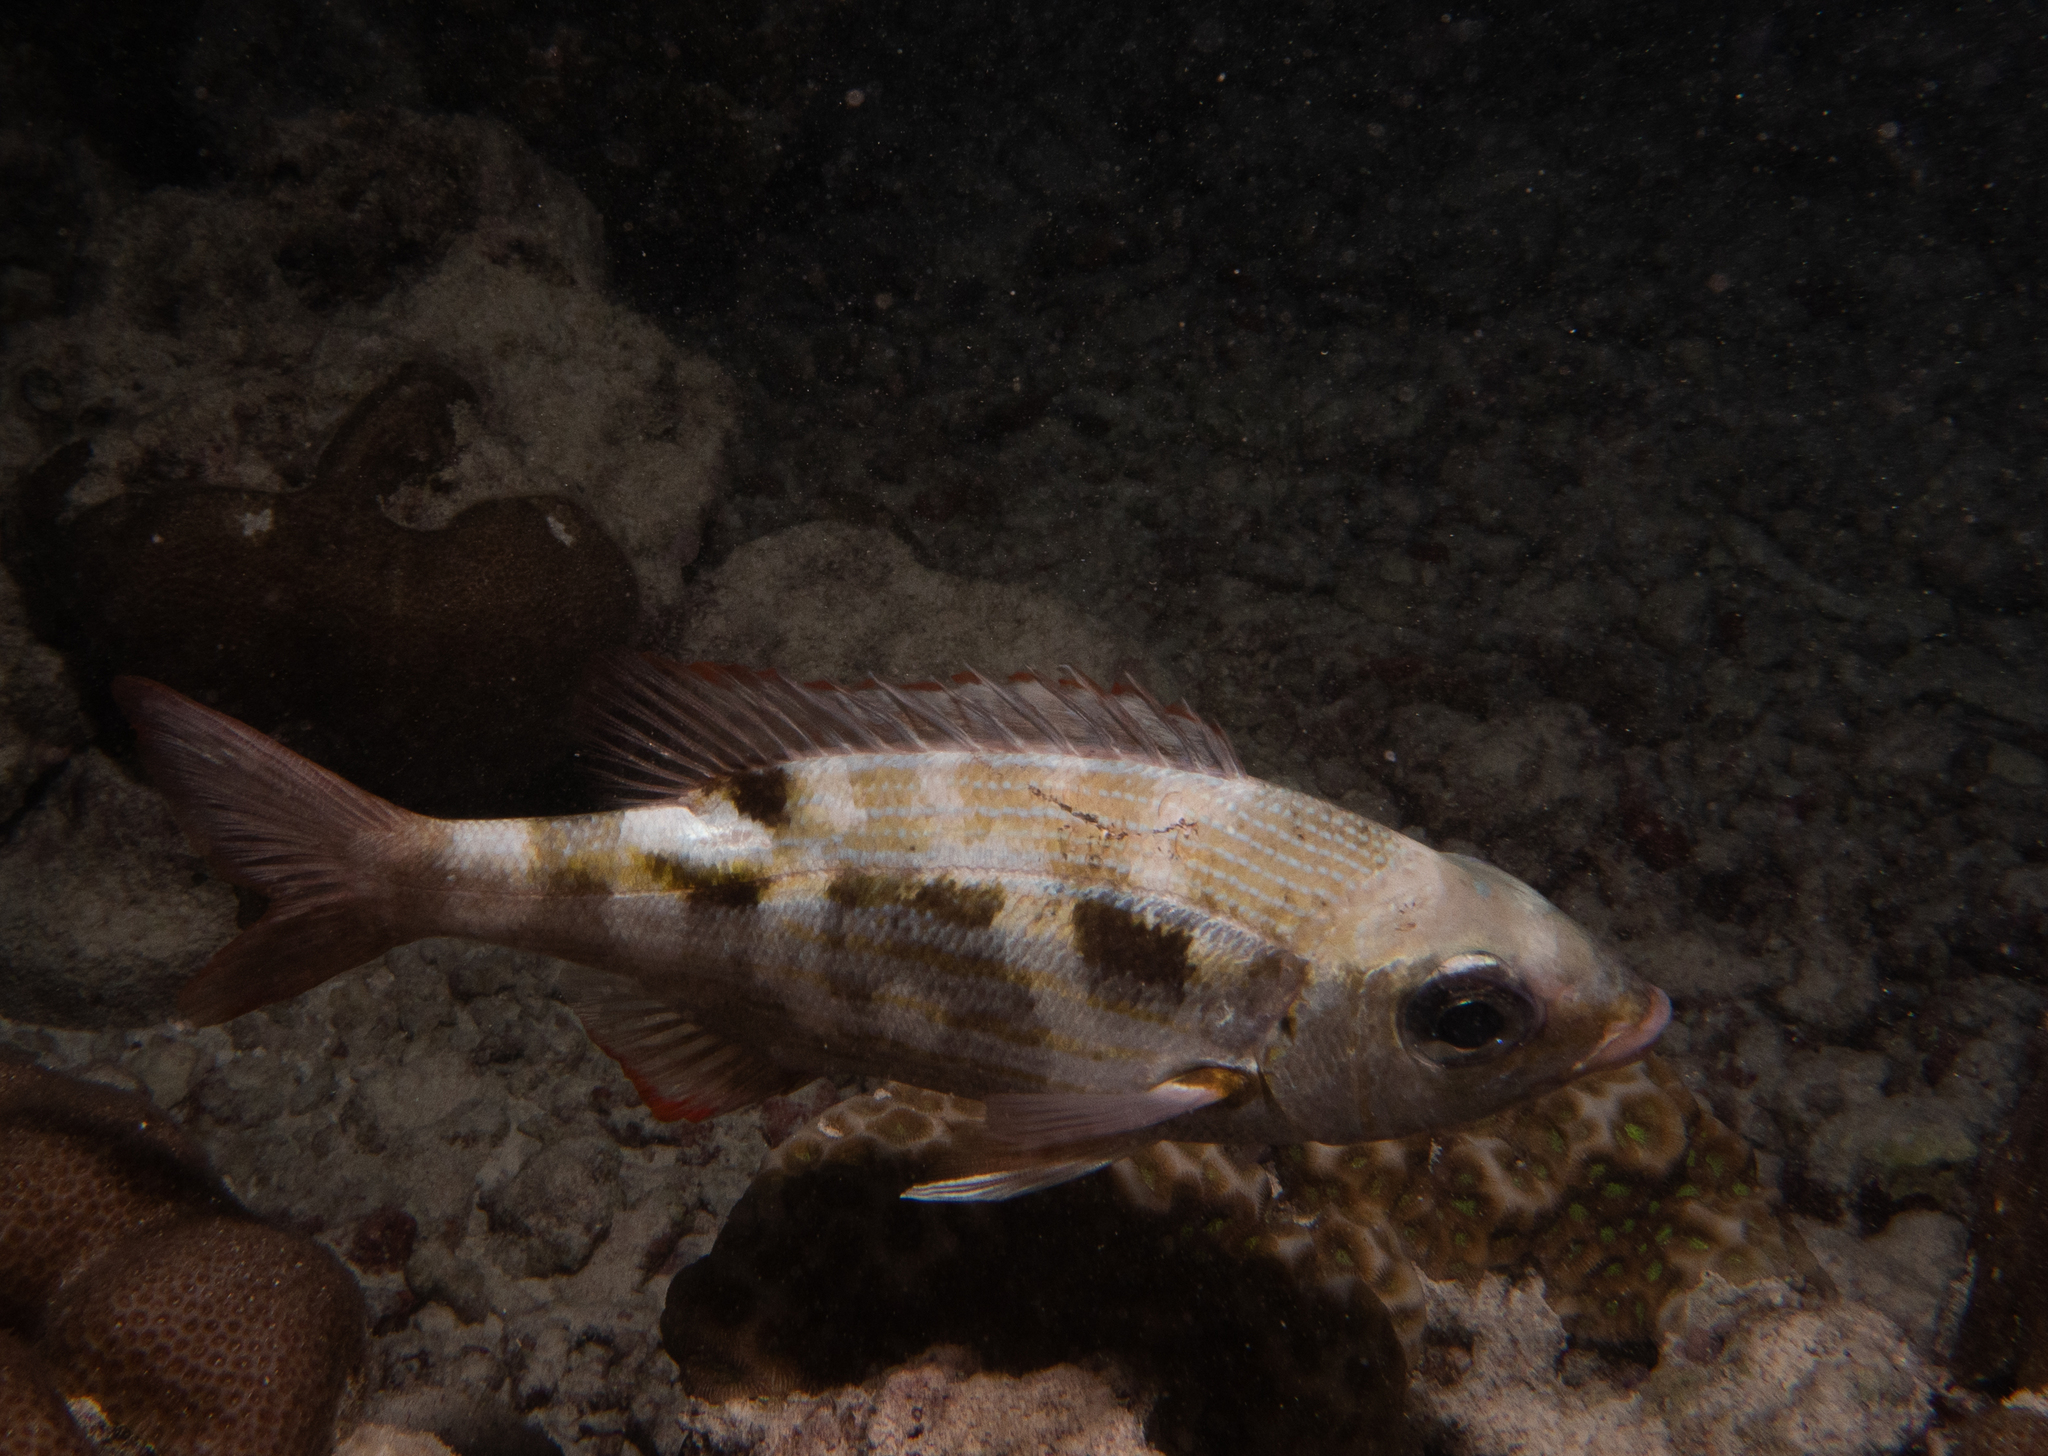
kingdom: Animalia
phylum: Chordata
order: Perciformes
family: Lethrinidae
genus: Gnathodentex
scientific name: Gnathodentex aureolineatus
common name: Gold-lined sea bream
